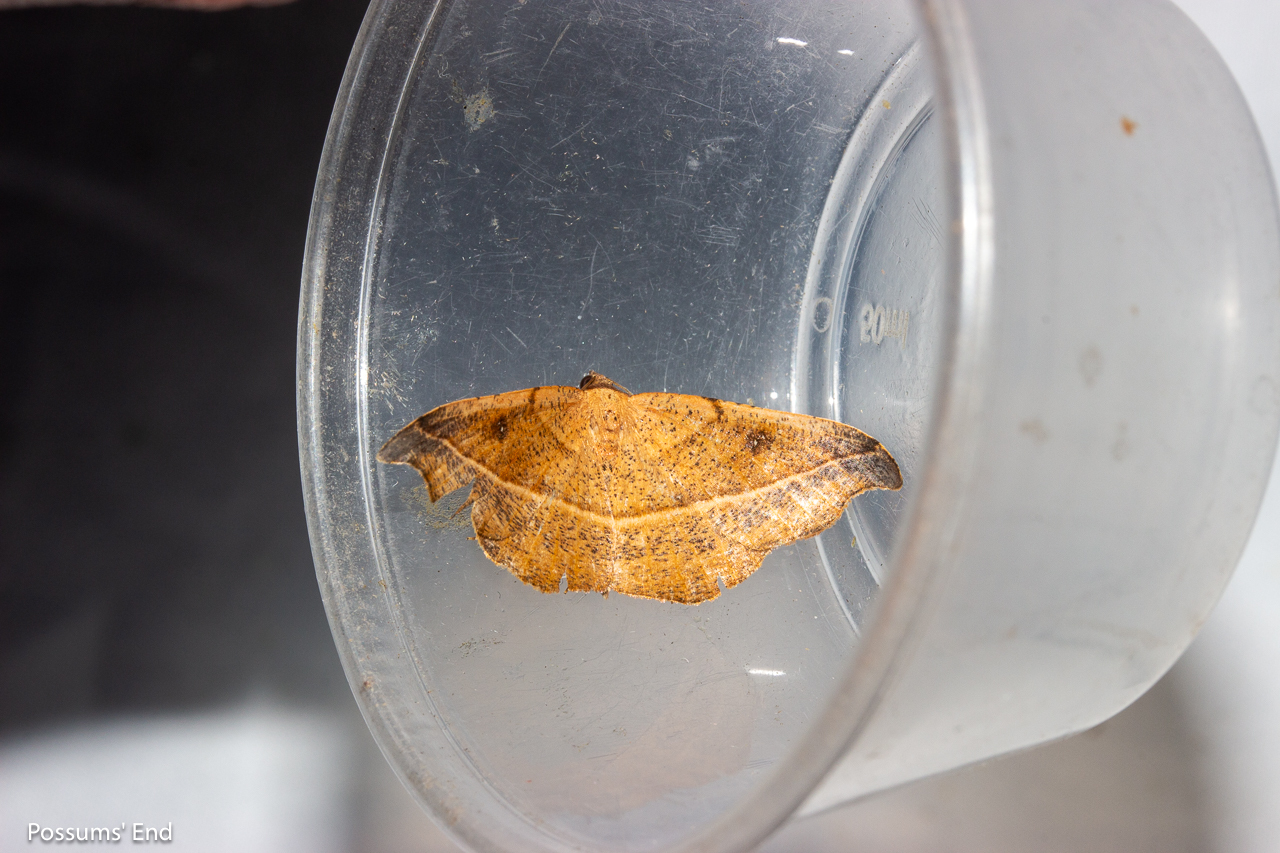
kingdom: Animalia
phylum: Arthropoda
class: Insecta
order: Lepidoptera
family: Geometridae
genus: Sarisa
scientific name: Sarisa muriferata
